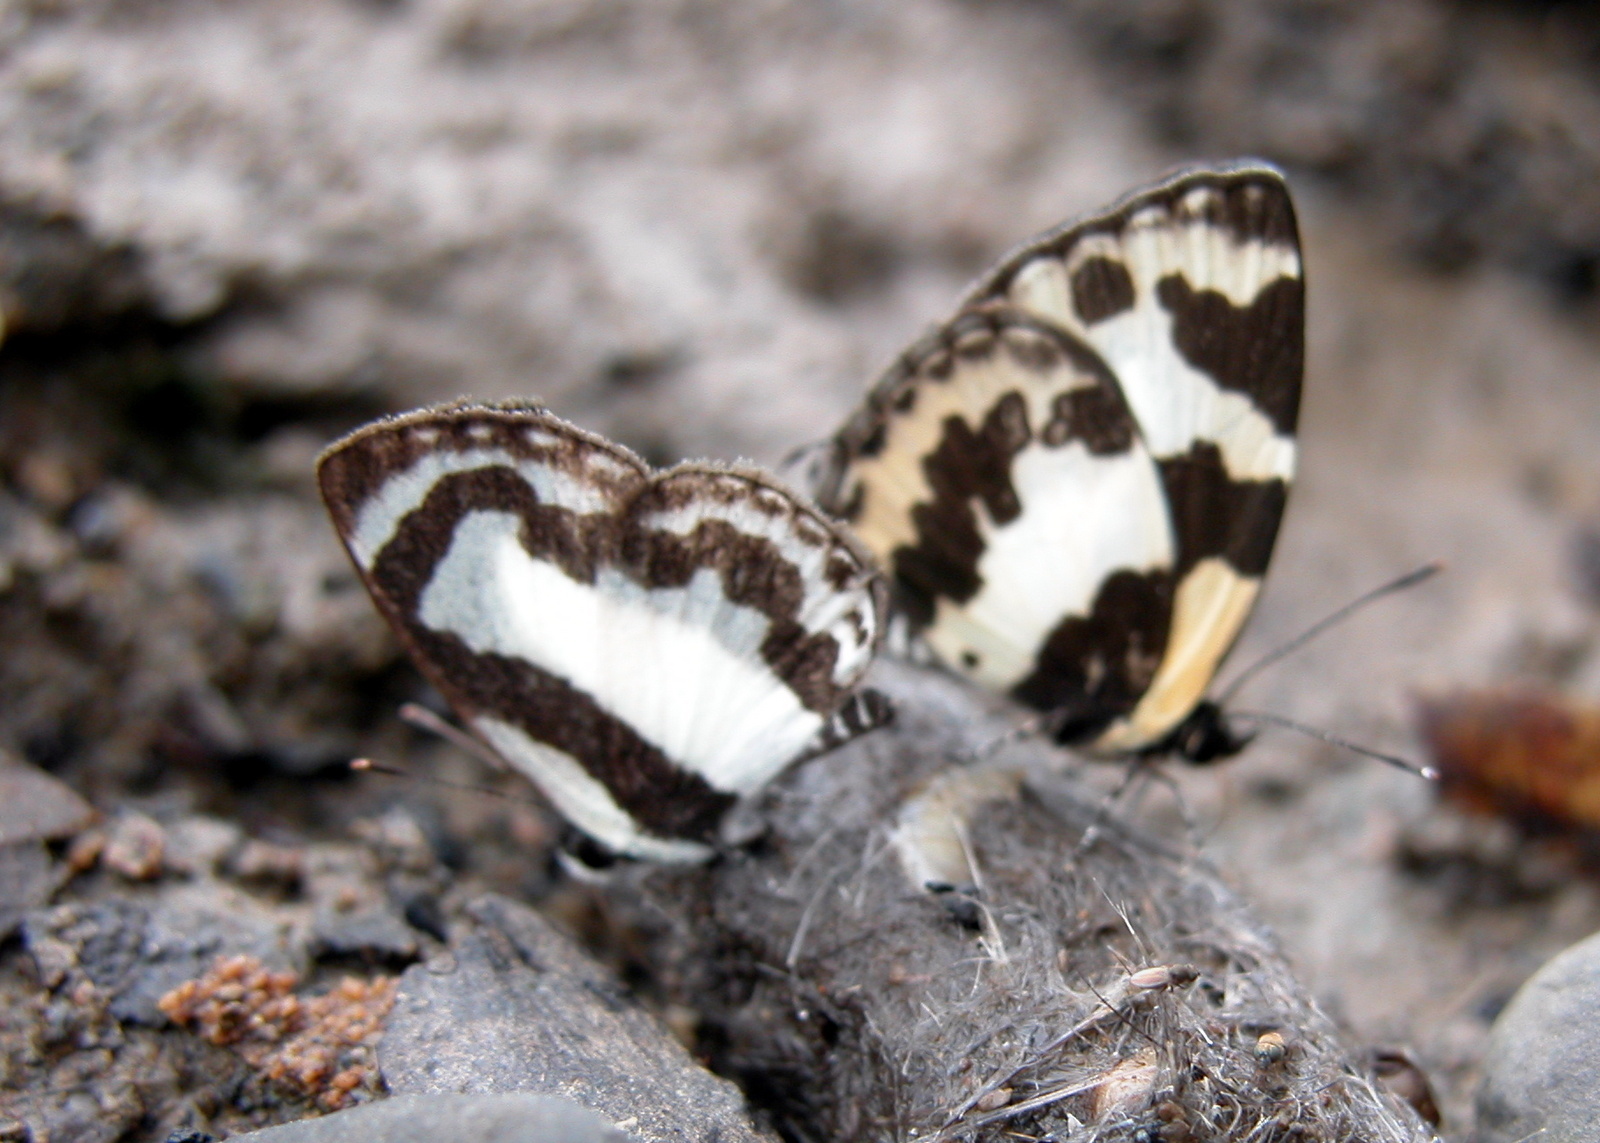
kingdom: Animalia
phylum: Arthropoda
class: Insecta
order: Lepidoptera
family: Lycaenidae
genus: Caleta
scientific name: Caleta elna
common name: Elbowed pierrot
